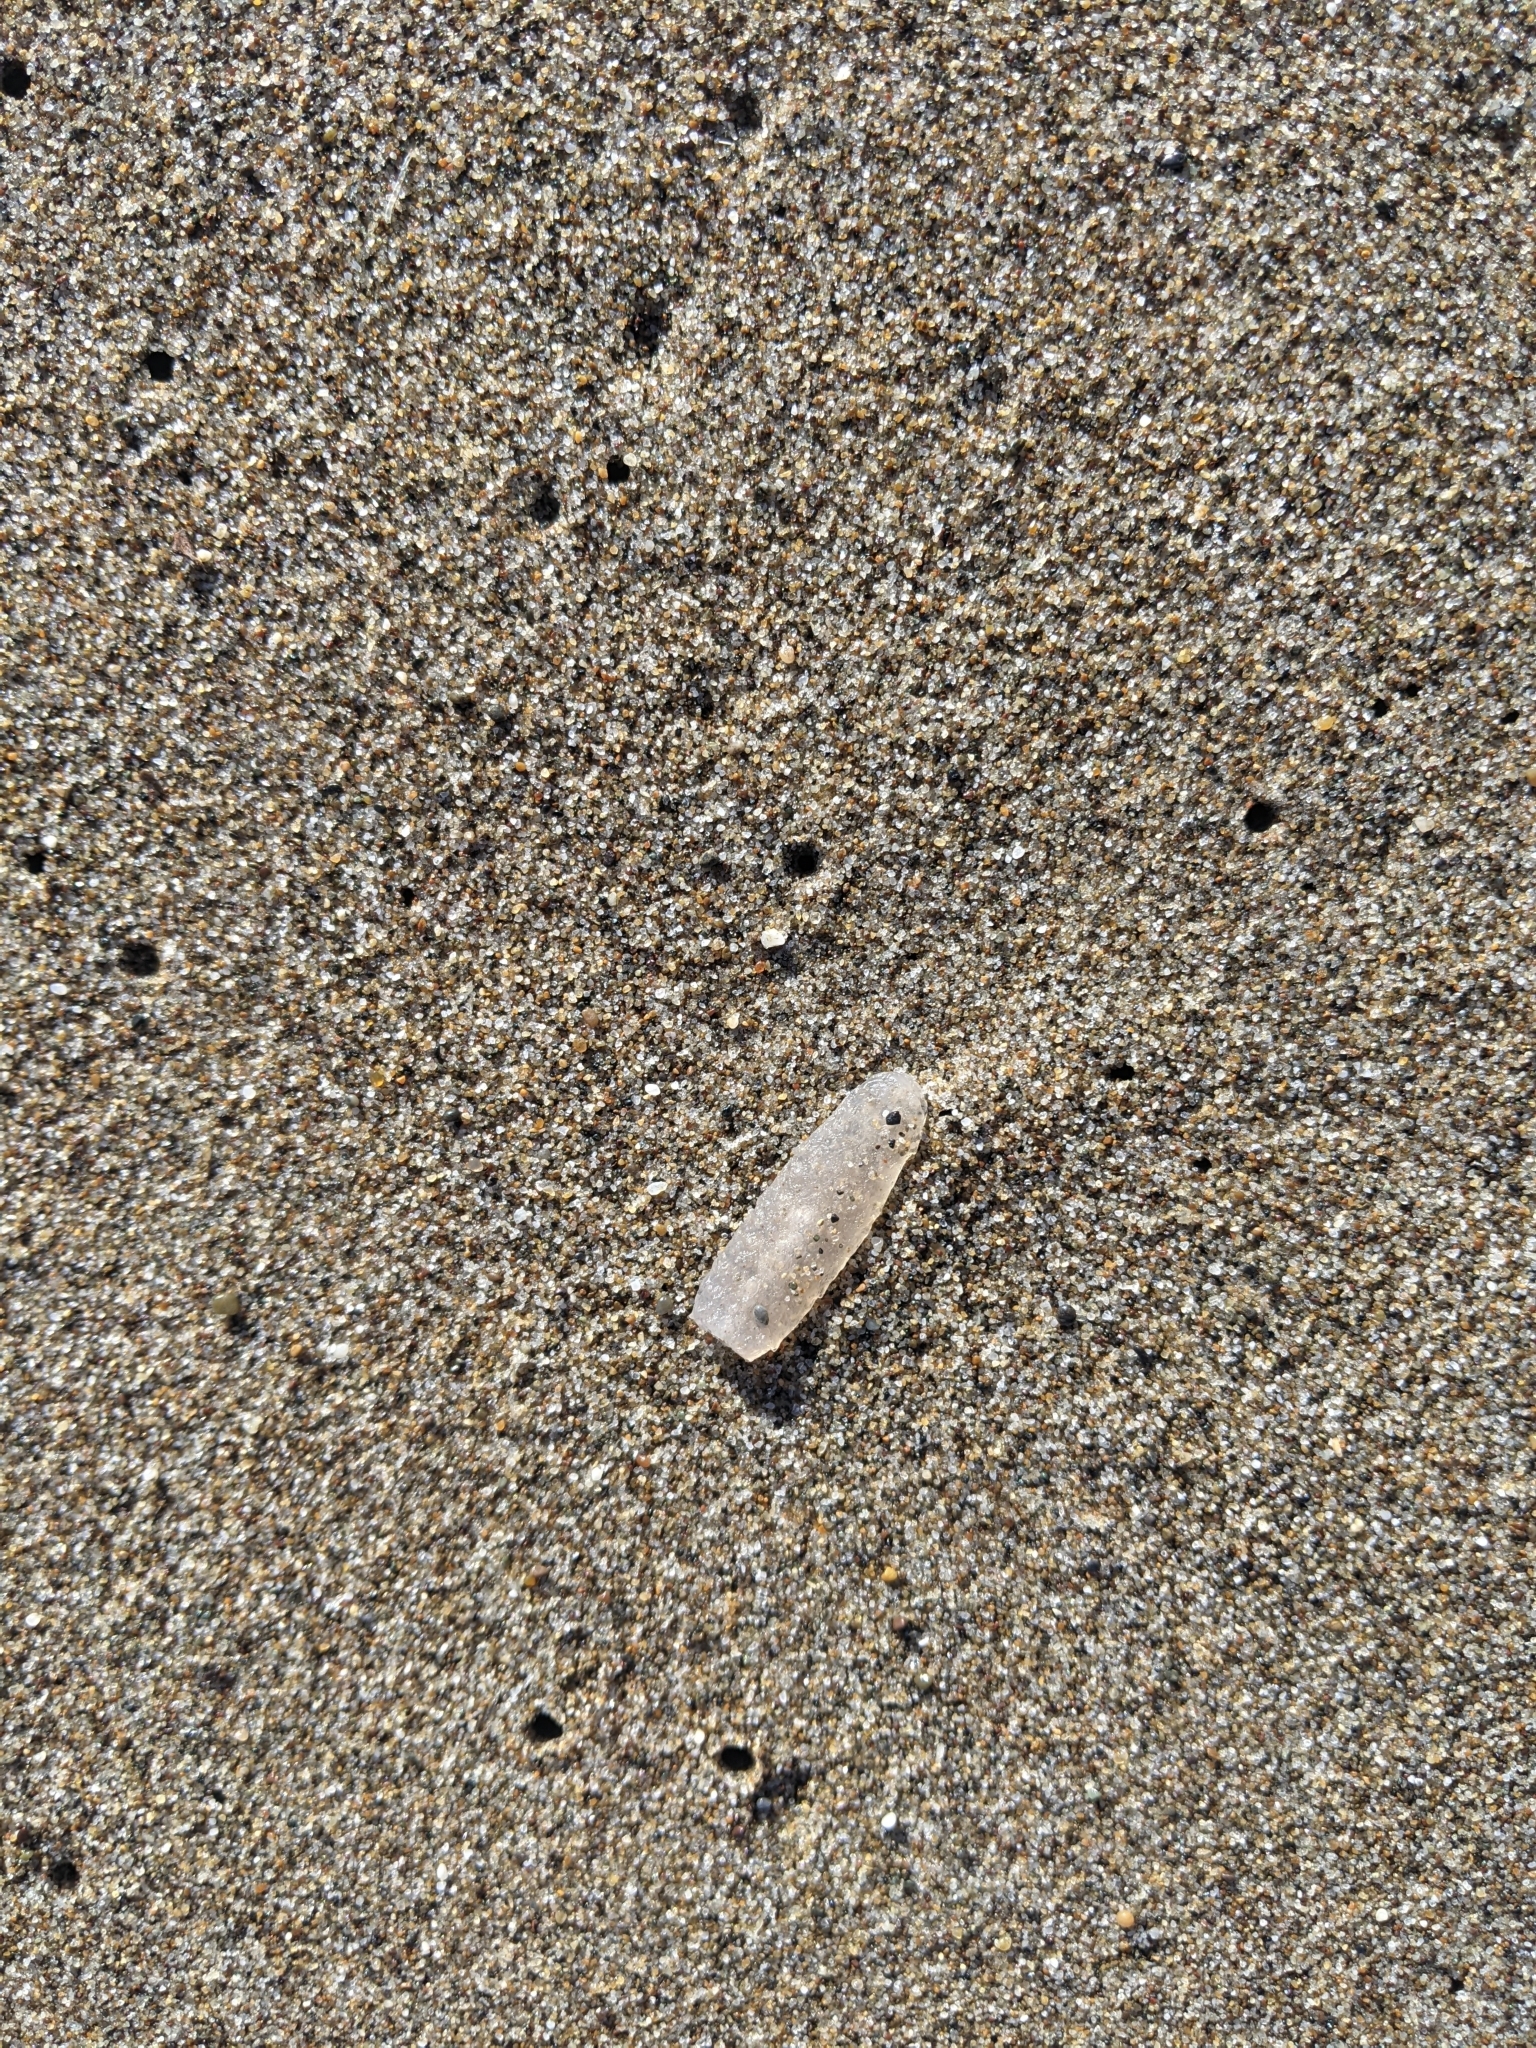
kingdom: Animalia
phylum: Chordata
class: Thaliacea
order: Pyrosomatida
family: Pyrosomatidae
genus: Pyrosoma
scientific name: Pyrosoma atlanticum
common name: Atlantic pyrosomes
